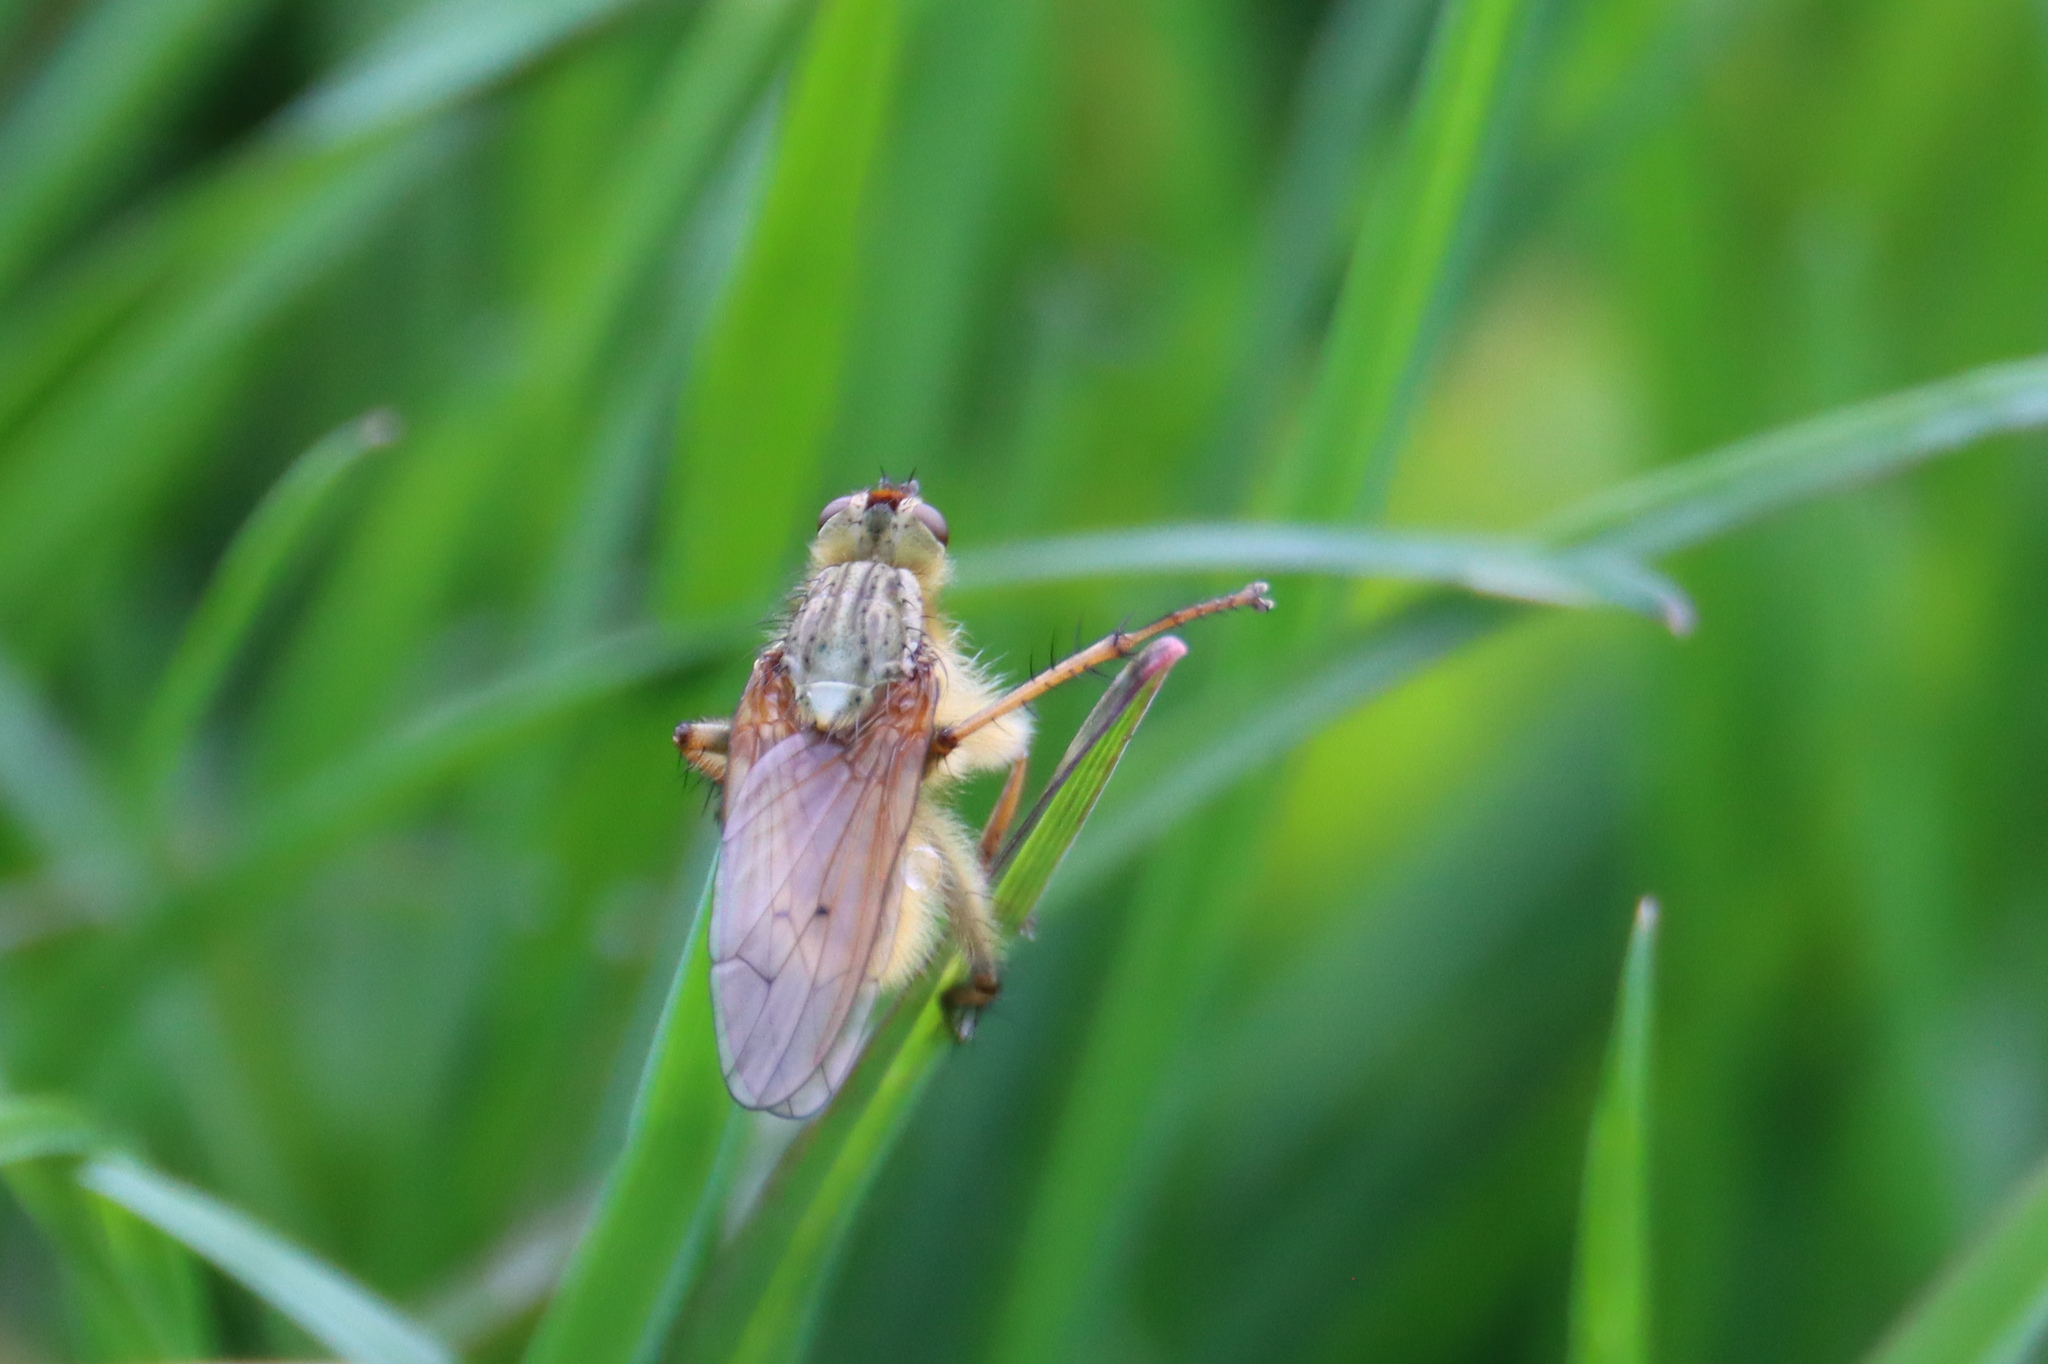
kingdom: Animalia
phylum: Arthropoda
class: Insecta
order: Diptera
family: Scathophagidae
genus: Scathophaga
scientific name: Scathophaga stercoraria
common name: Yellow dung fly
